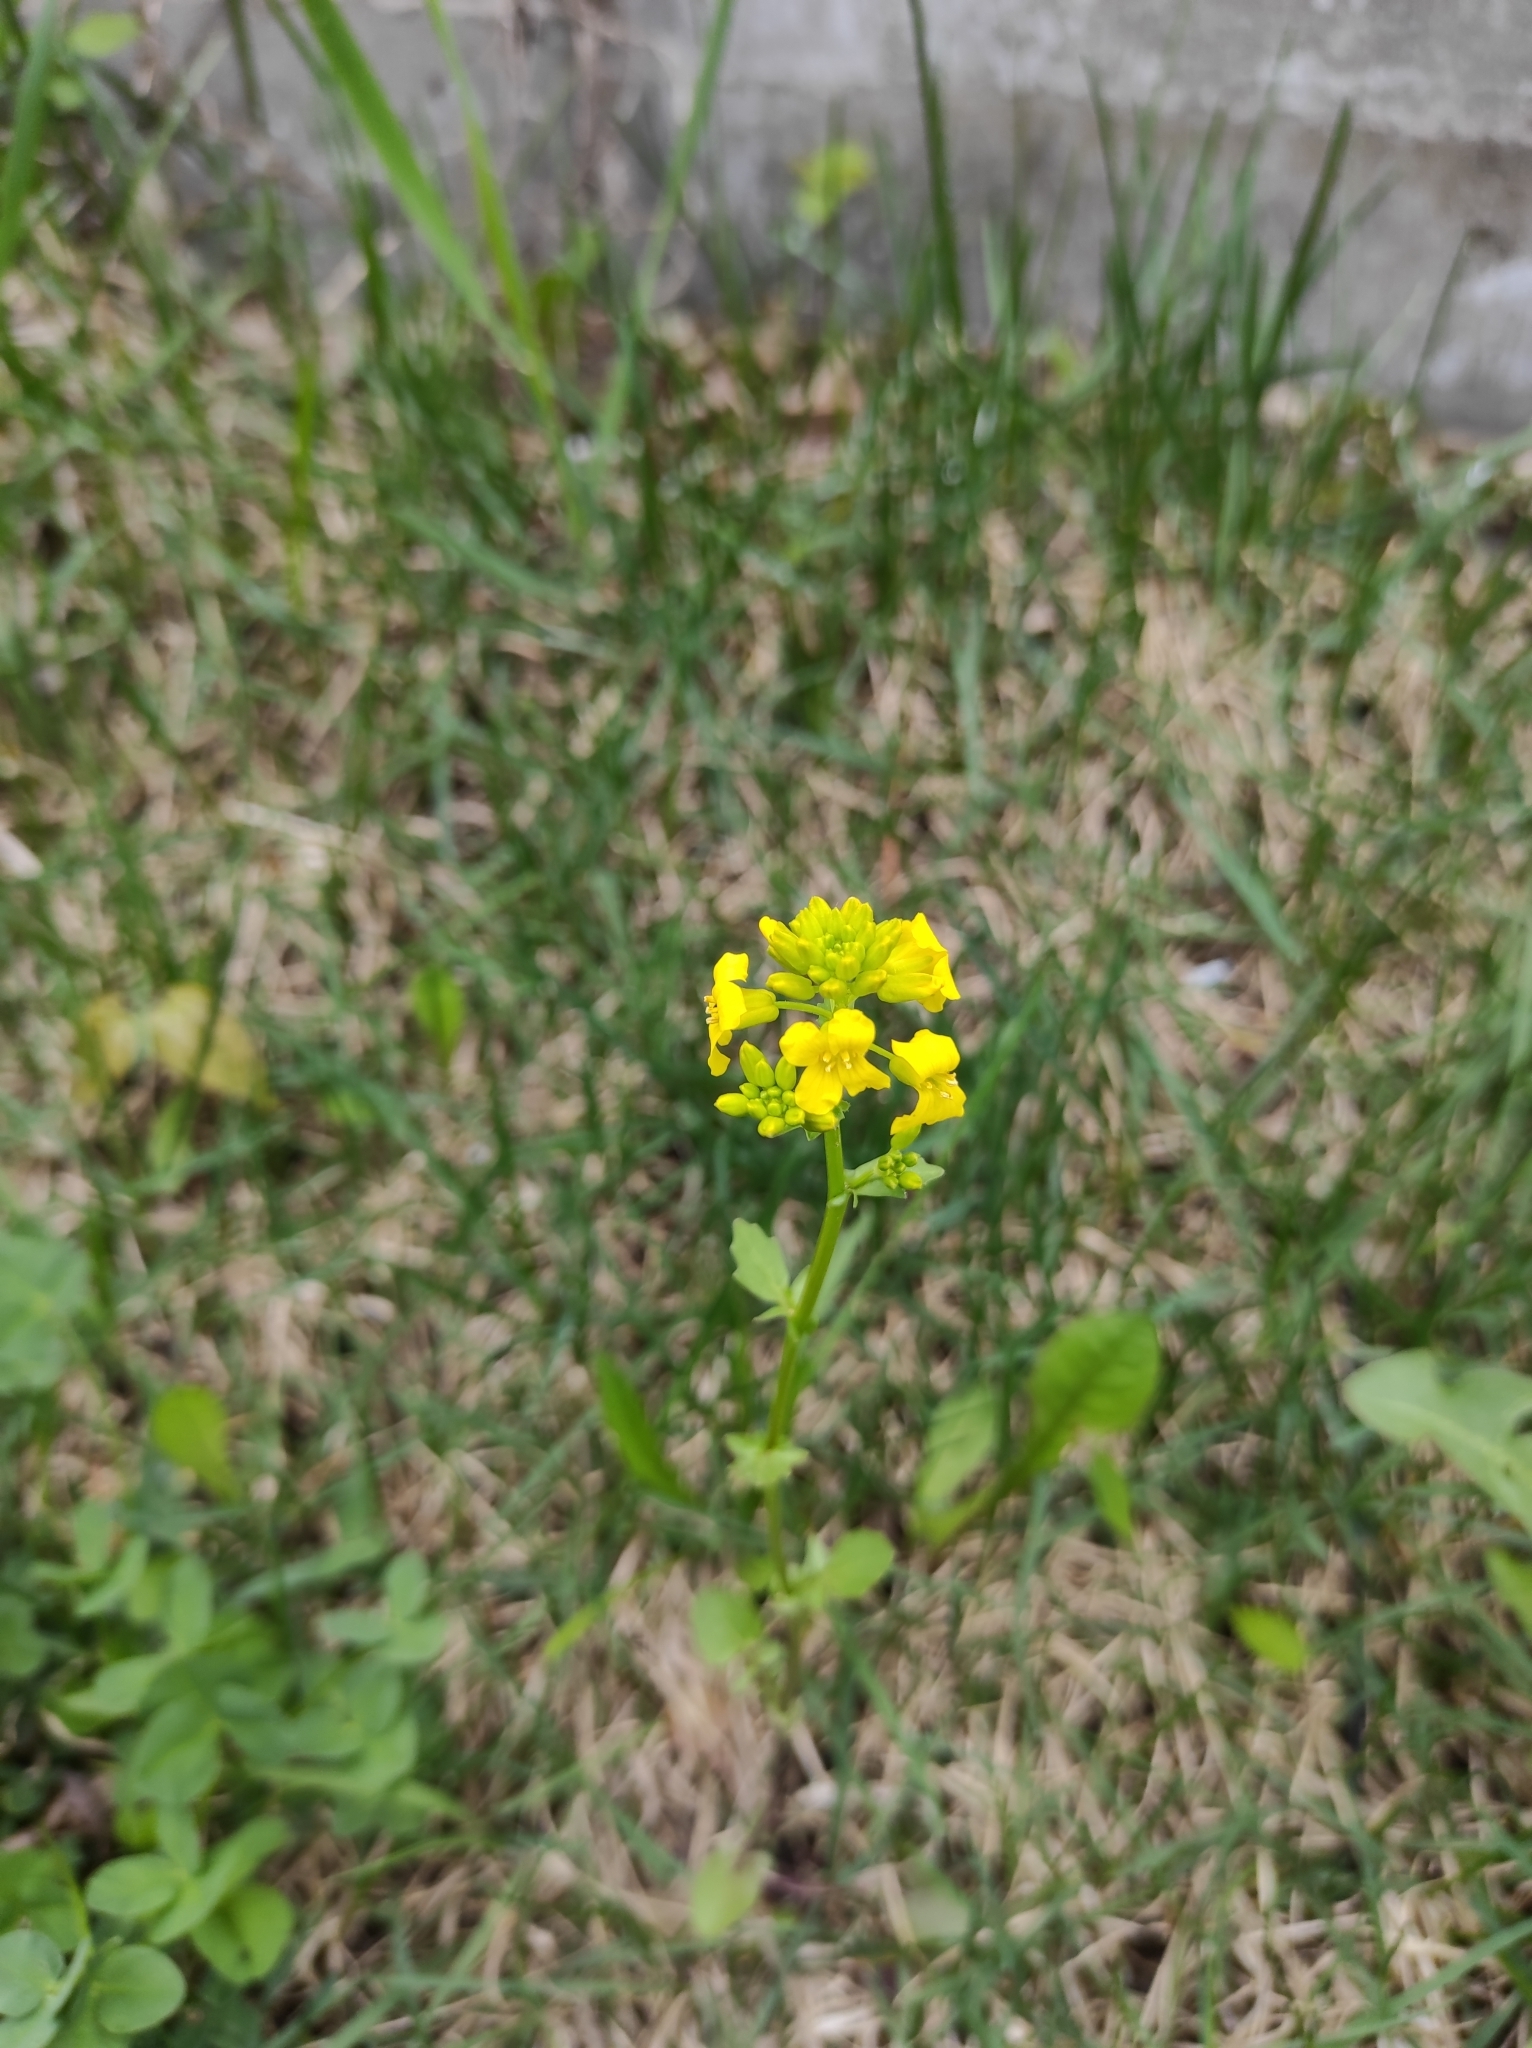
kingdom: Plantae
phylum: Tracheophyta
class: Magnoliopsida
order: Brassicales
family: Brassicaceae
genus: Barbarea
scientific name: Barbarea vulgaris
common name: Cressy-greens
